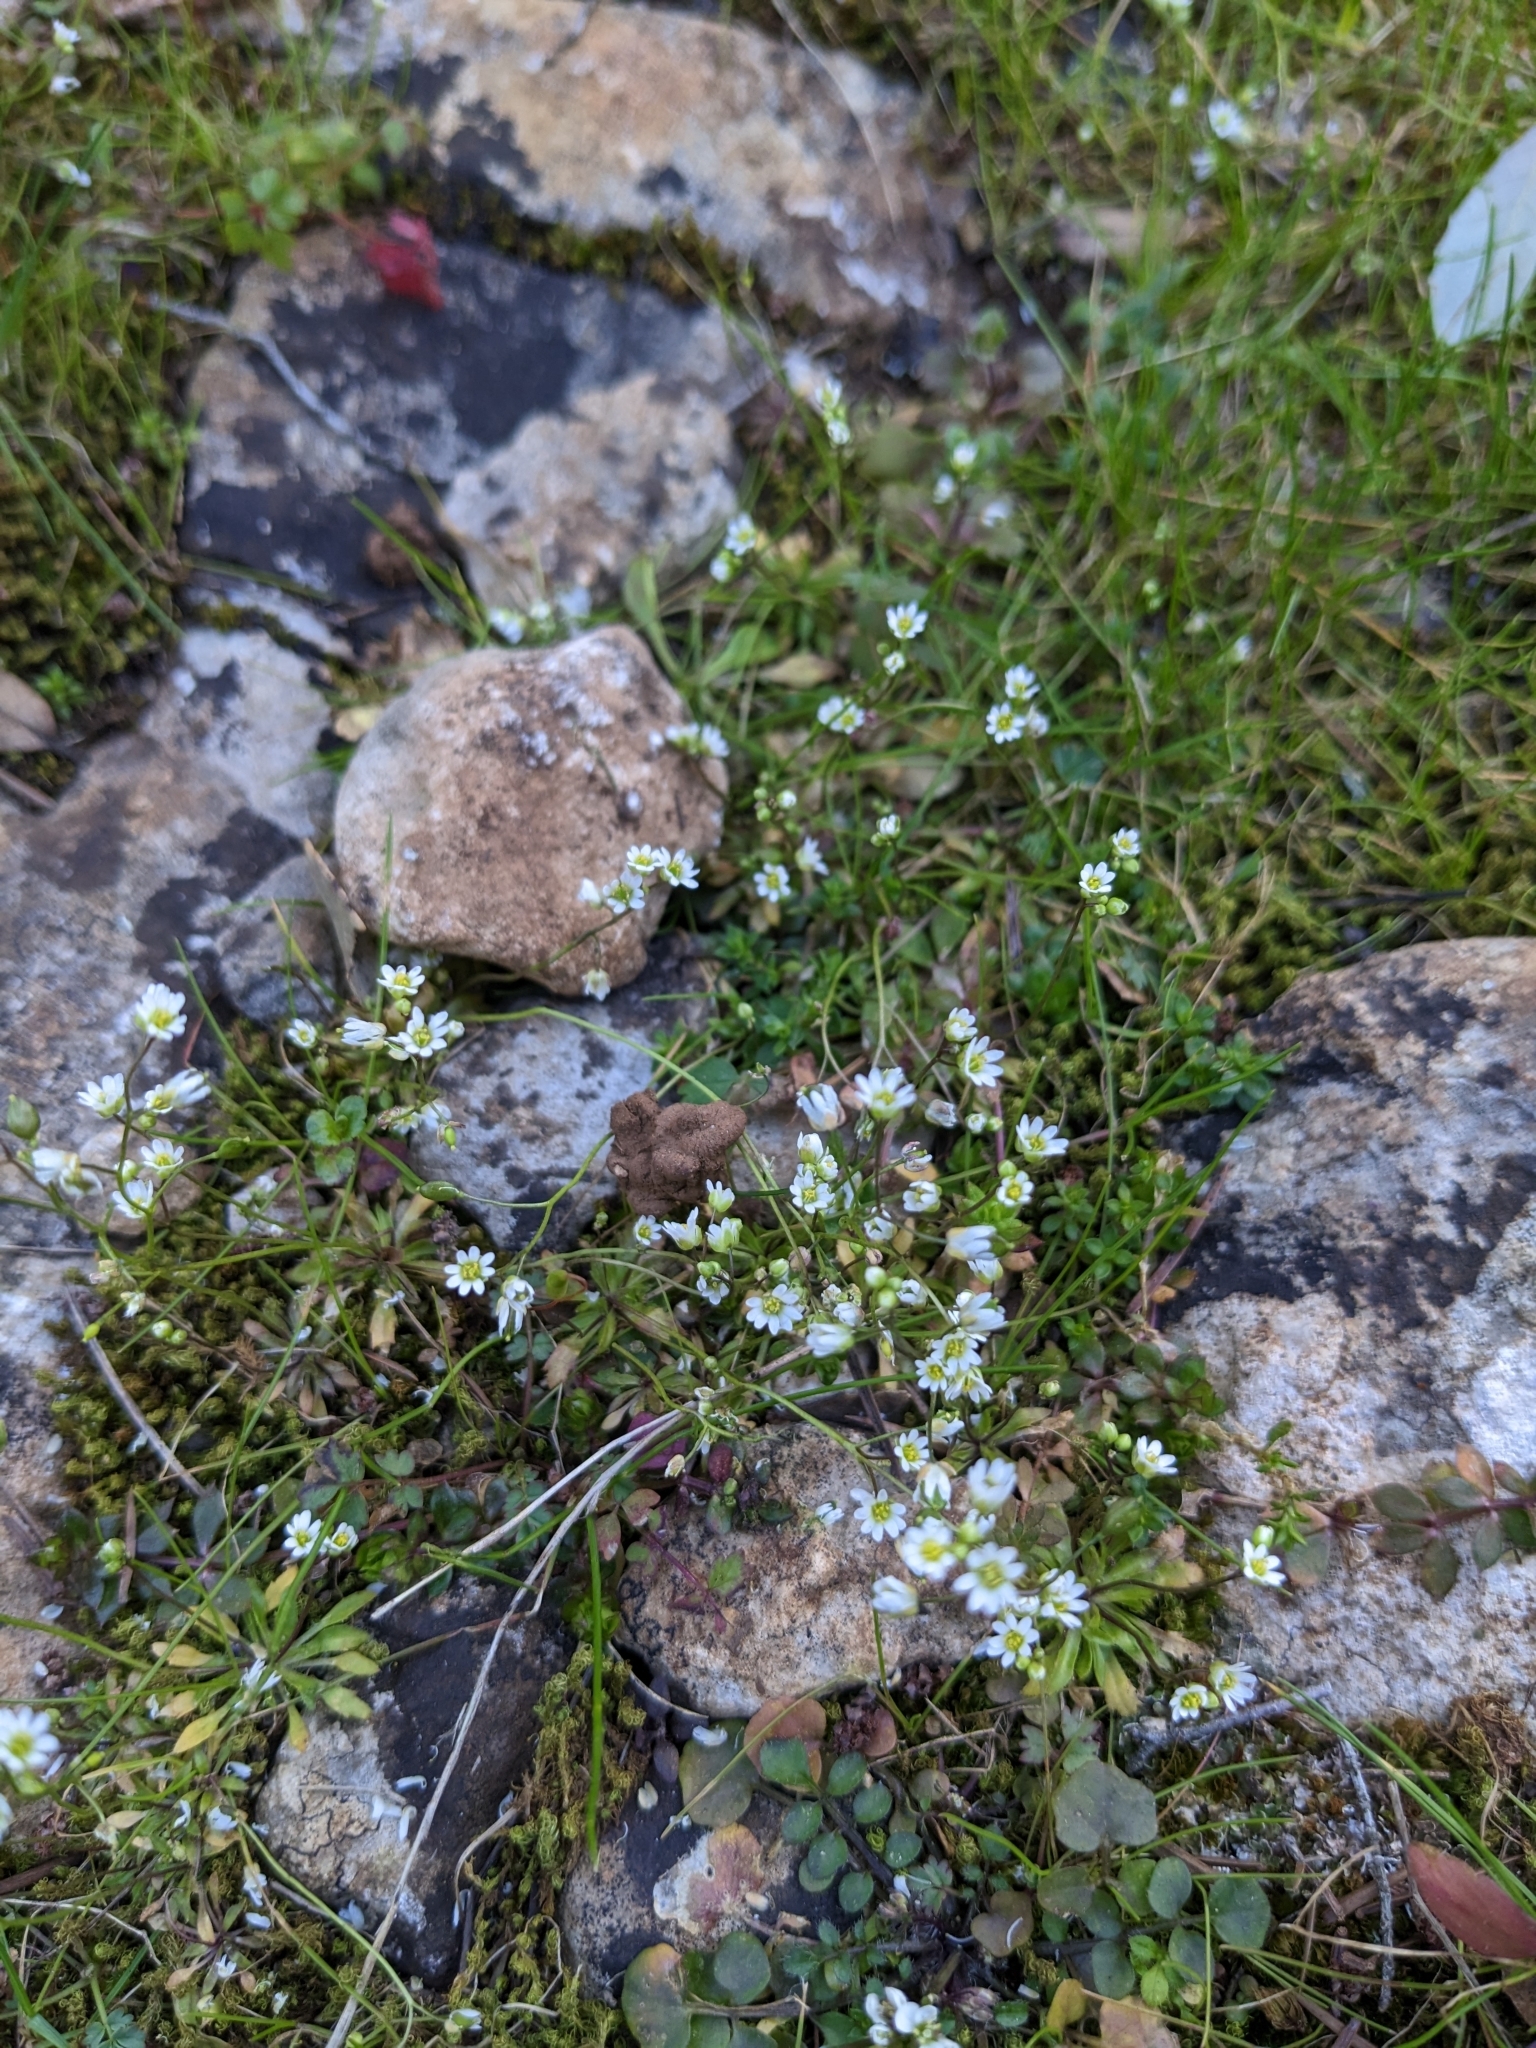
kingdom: Plantae
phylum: Tracheophyta
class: Magnoliopsida
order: Brassicales
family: Brassicaceae
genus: Draba
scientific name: Draba verna
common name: Spring draba
